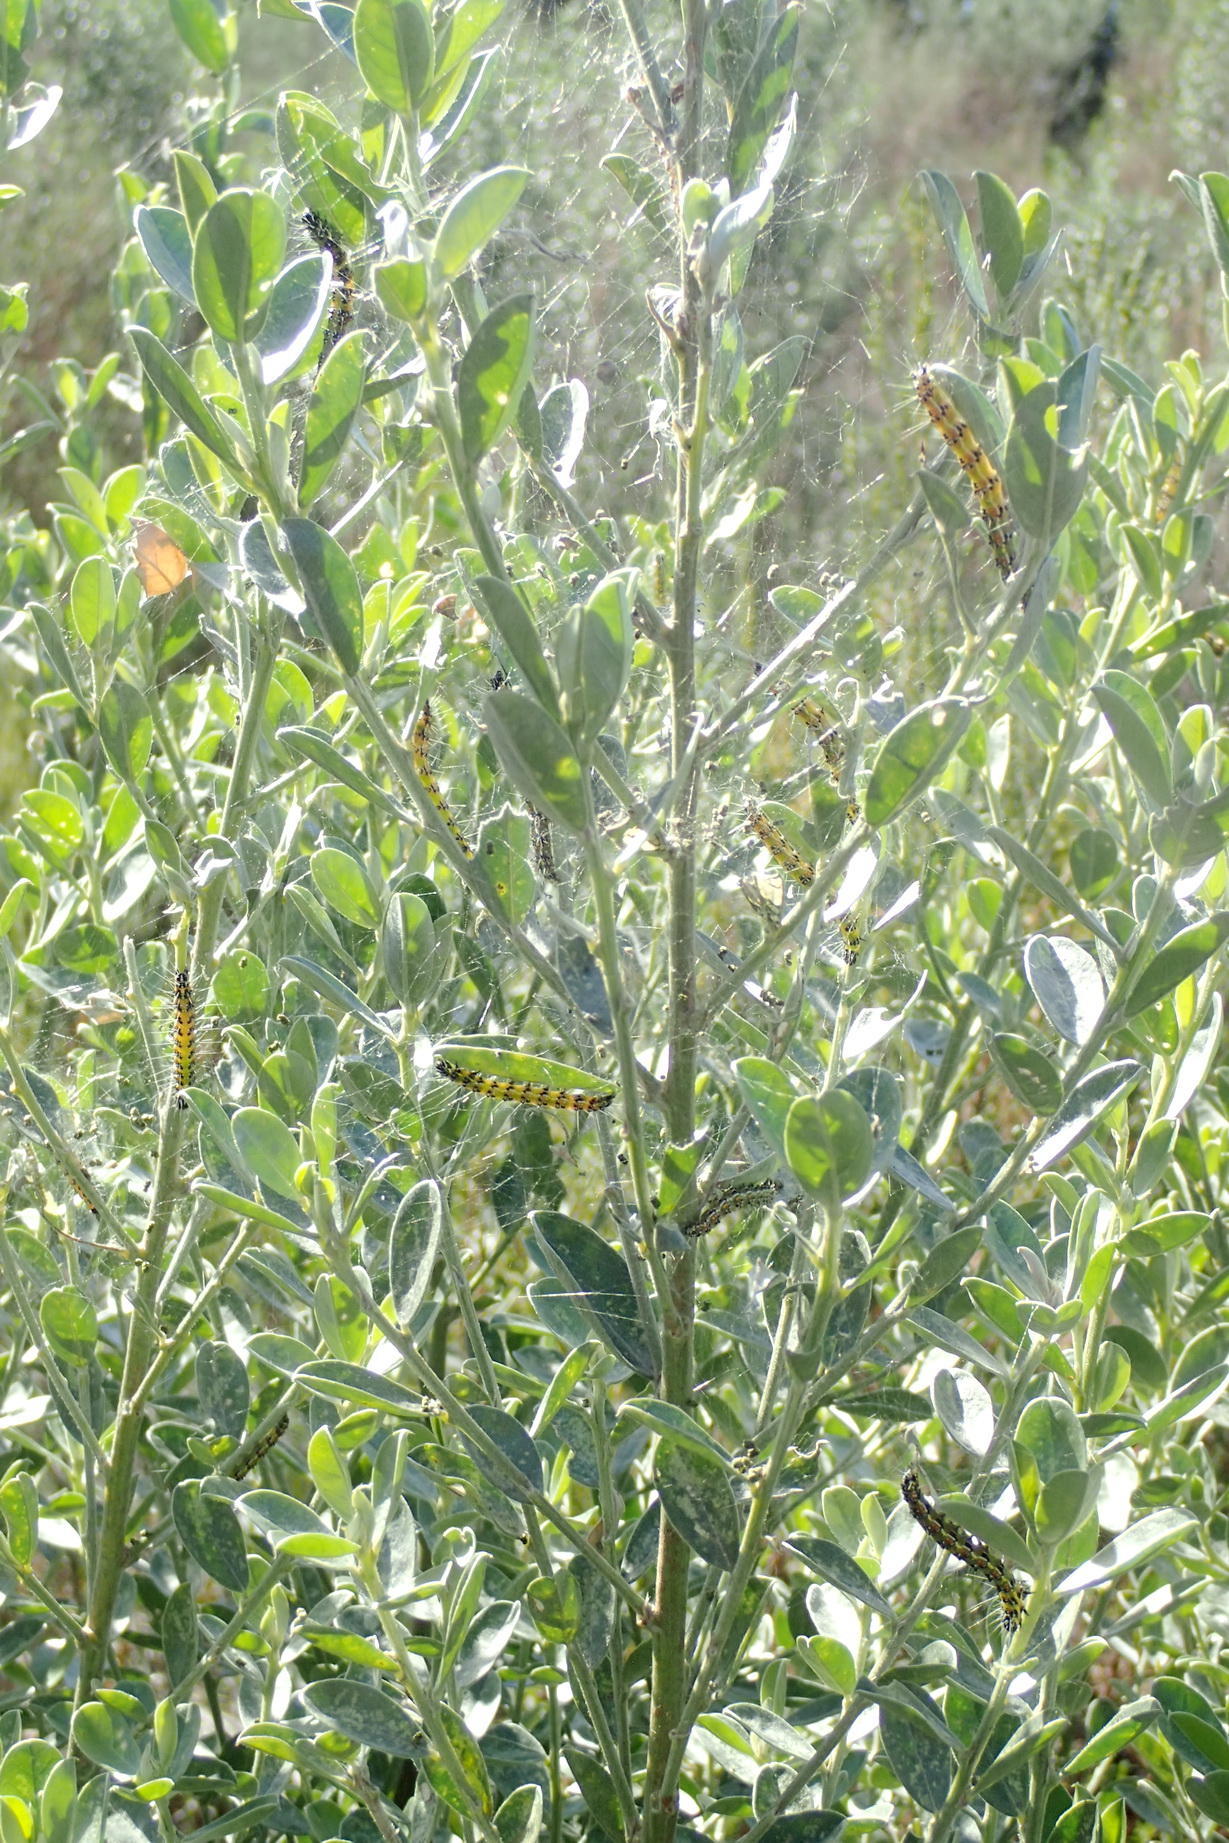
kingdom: Plantae
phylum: Tracheophyta
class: Magnoliopsida
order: Fabales
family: Fabaceae
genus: Podalyria
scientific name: Podalyria myrtillifolia
